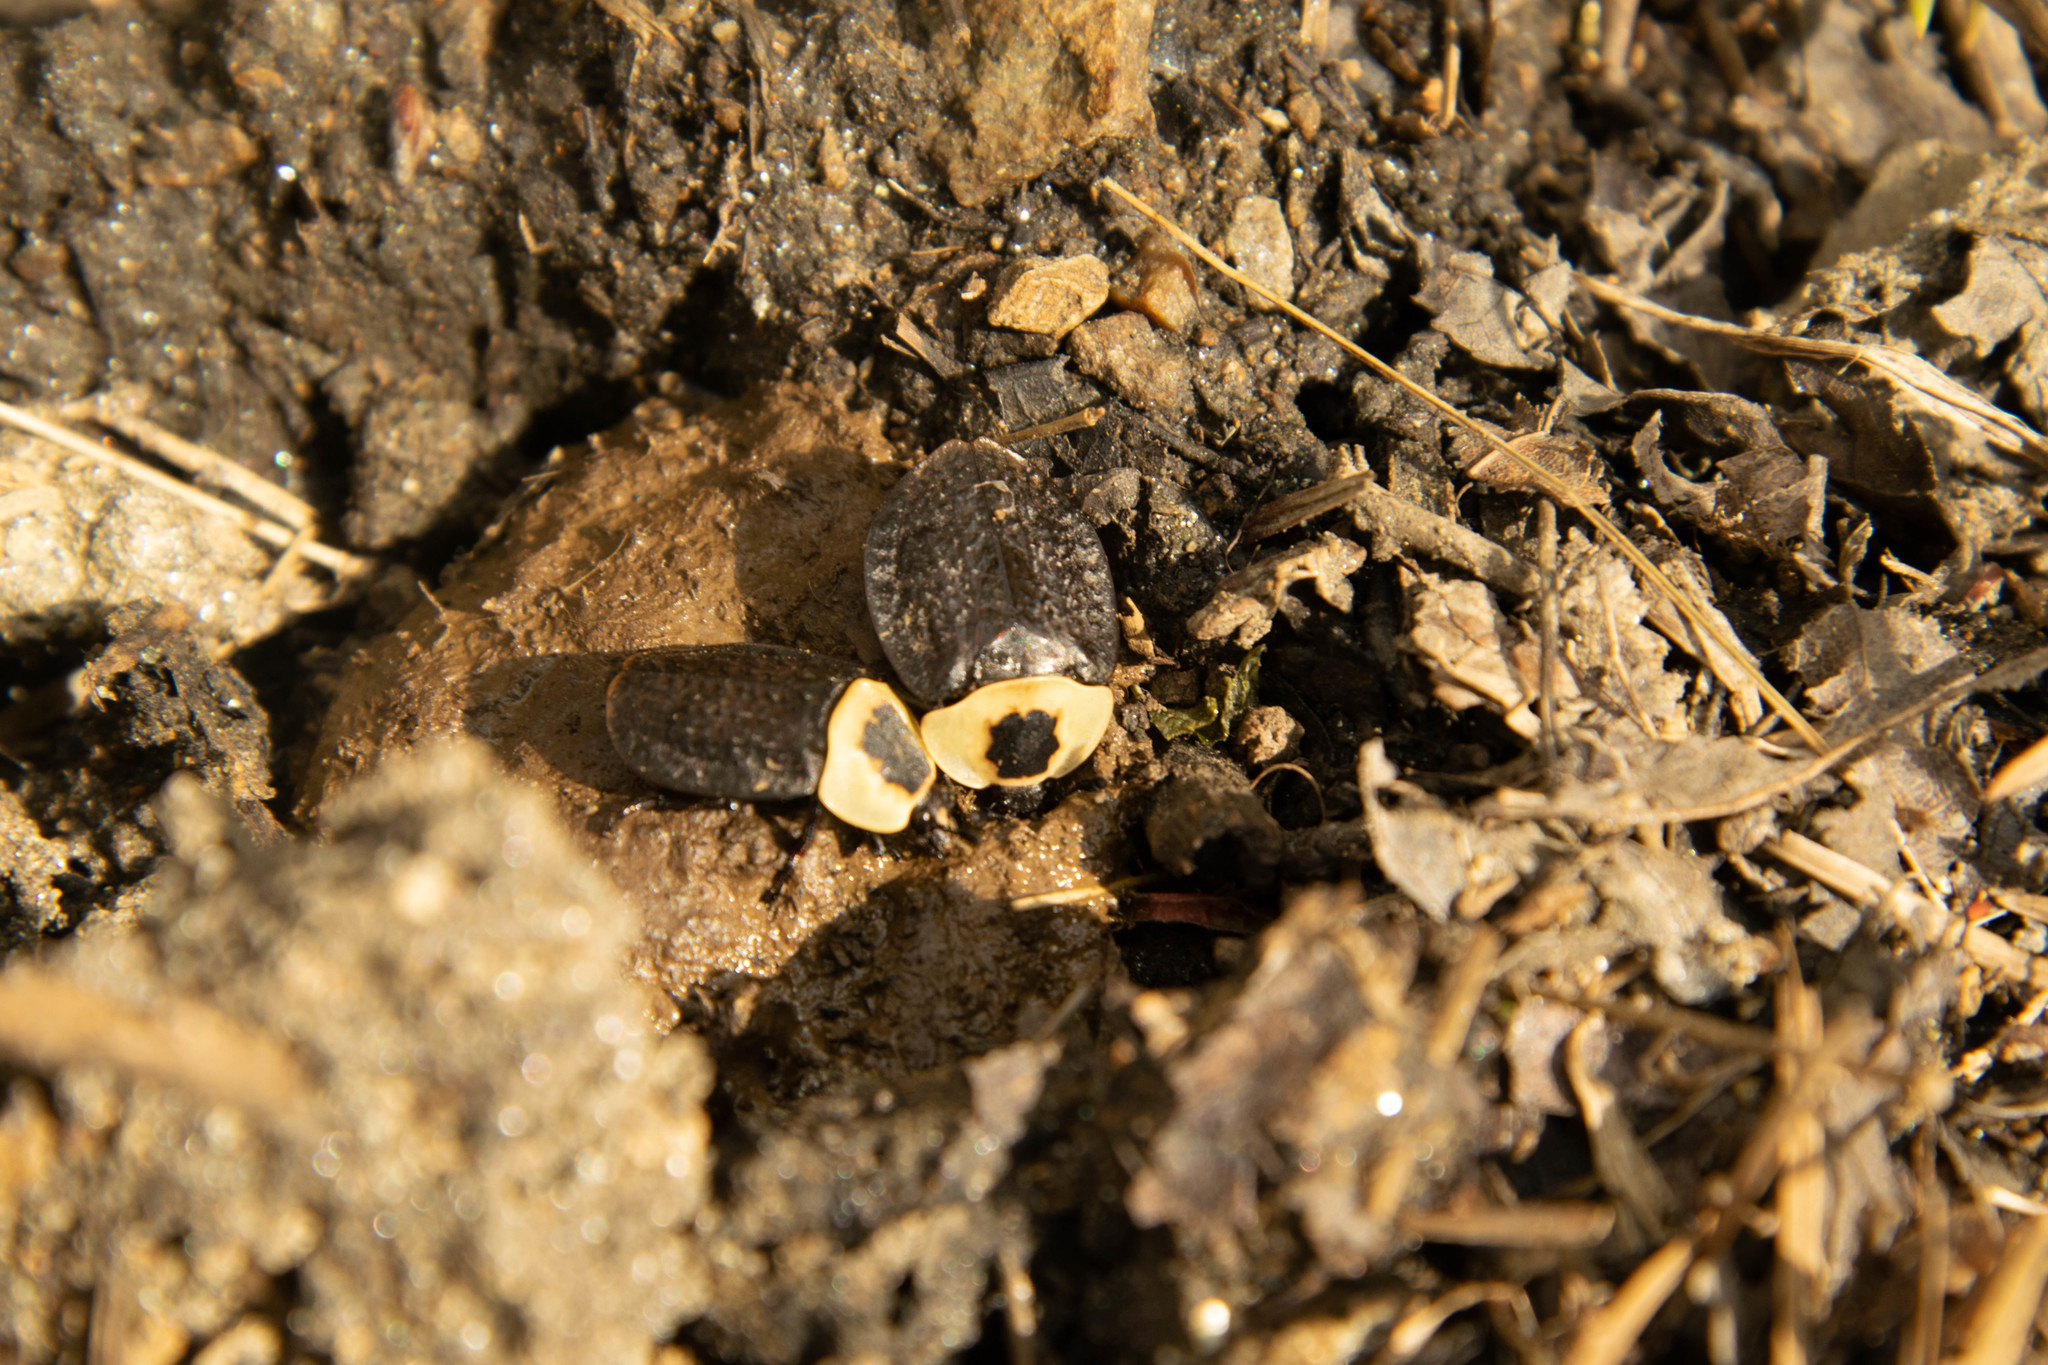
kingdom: Animalia
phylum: Arthropoda
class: Insecta
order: Coleoptera
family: Staphylinidae
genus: Necrophila
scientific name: Necrophila americana
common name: American carrion beetle
